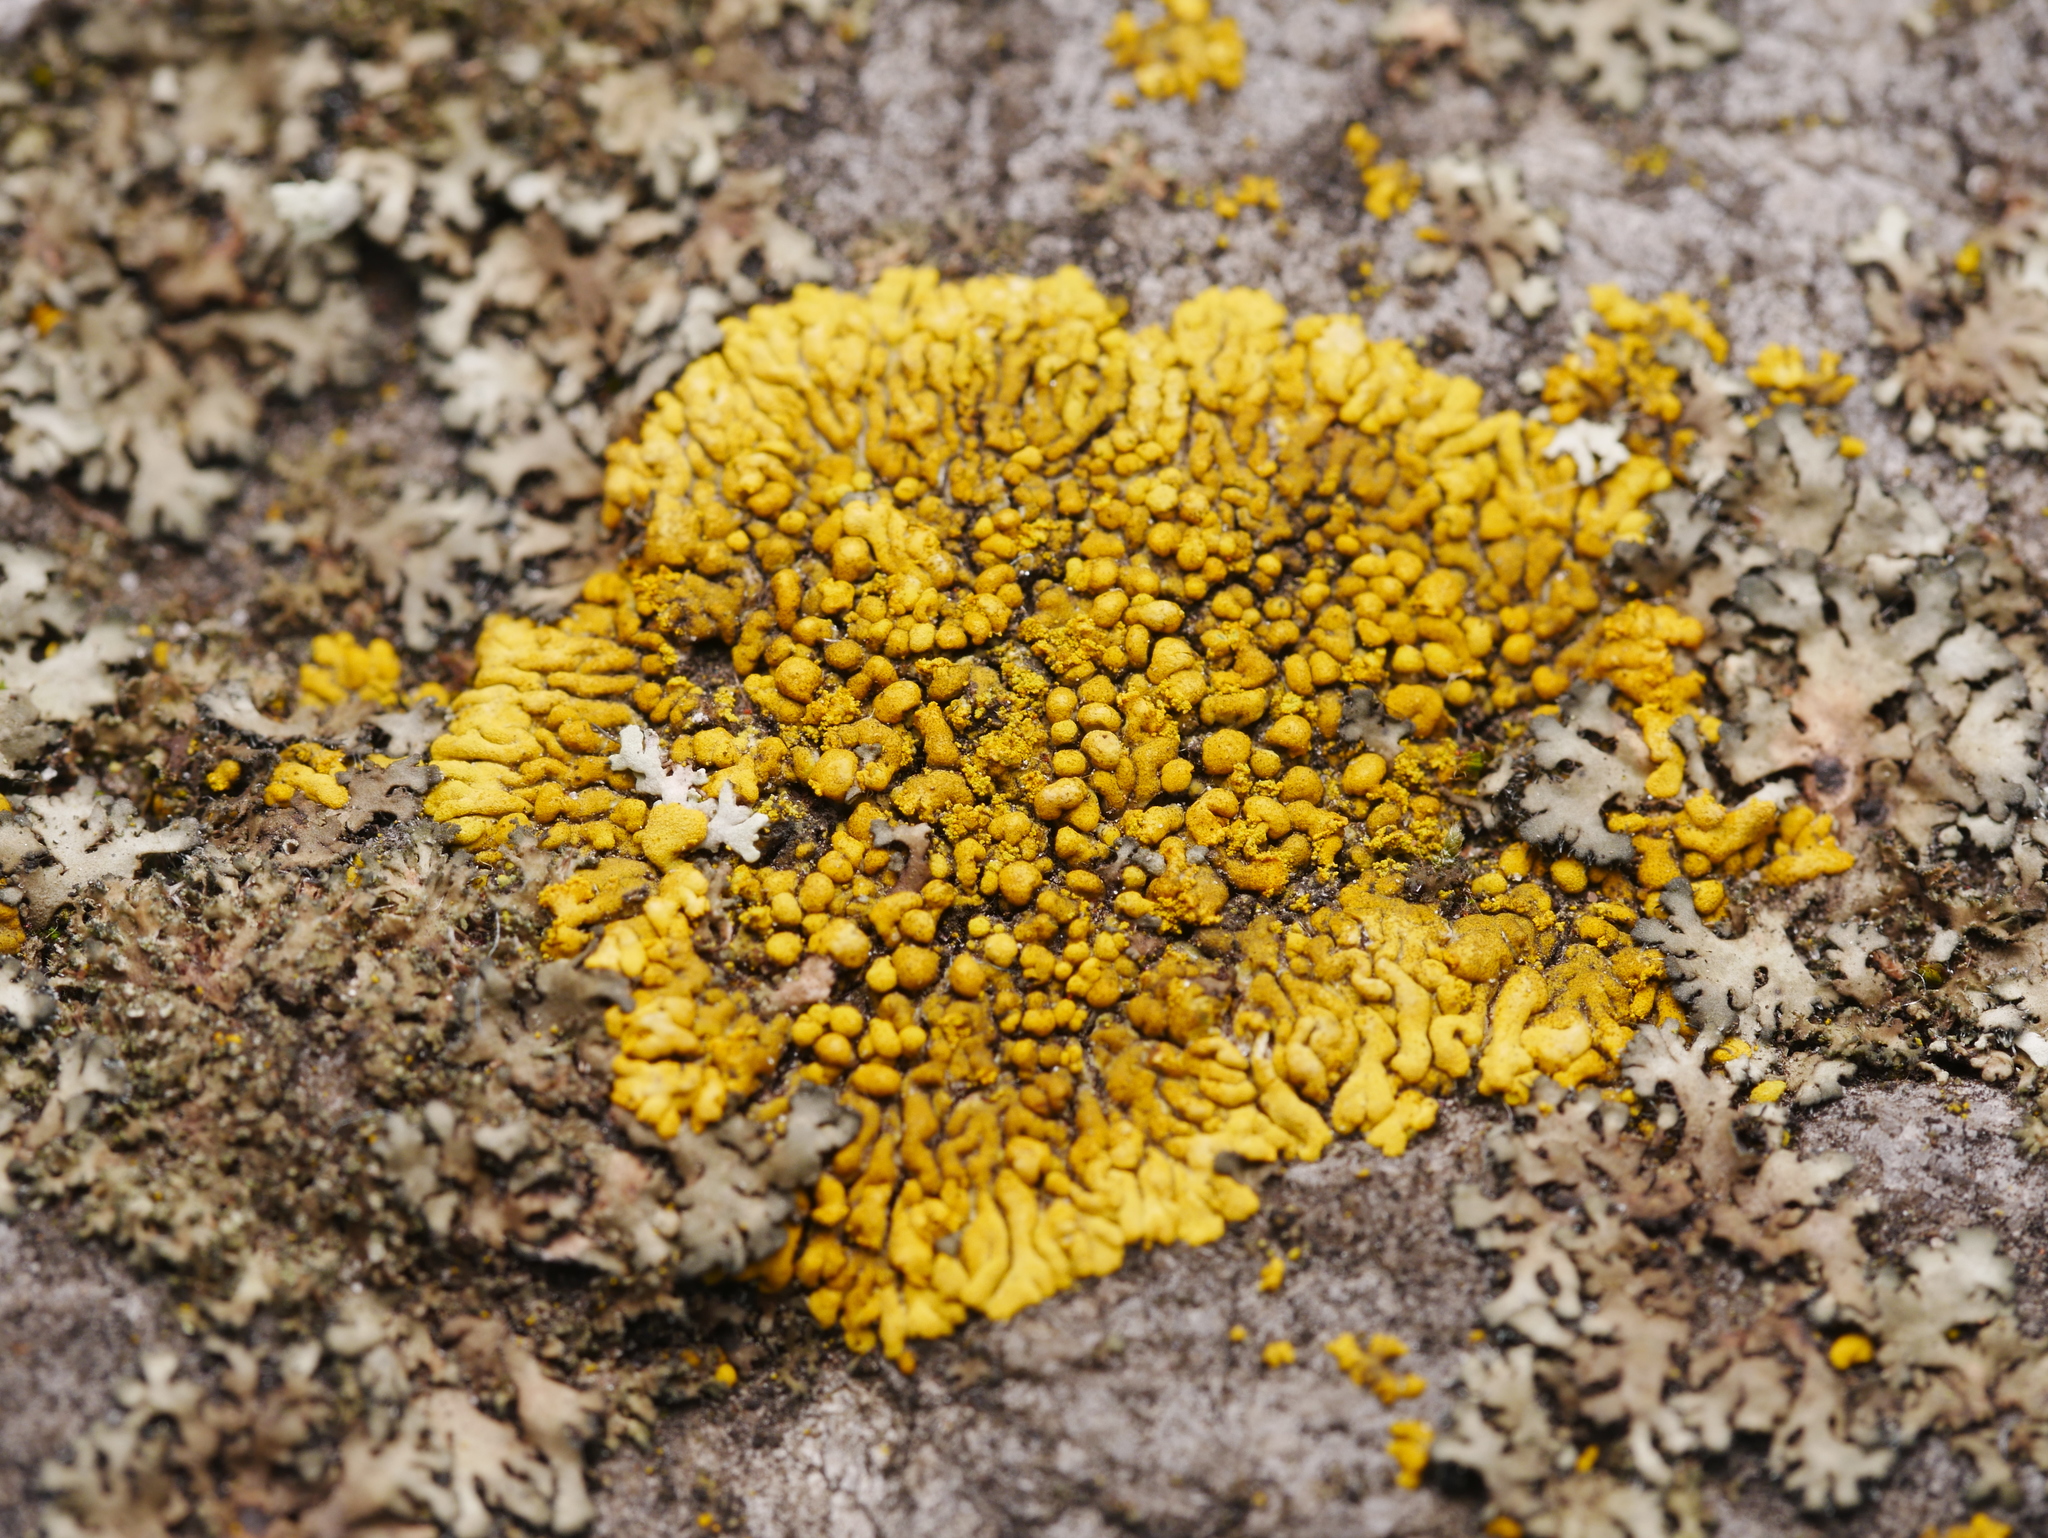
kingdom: Fungi
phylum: Ascomycota
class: Lecanoromycetes
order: Teloschistales
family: Teloschistaceae
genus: Calogaya
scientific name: Calogaya decipiens
